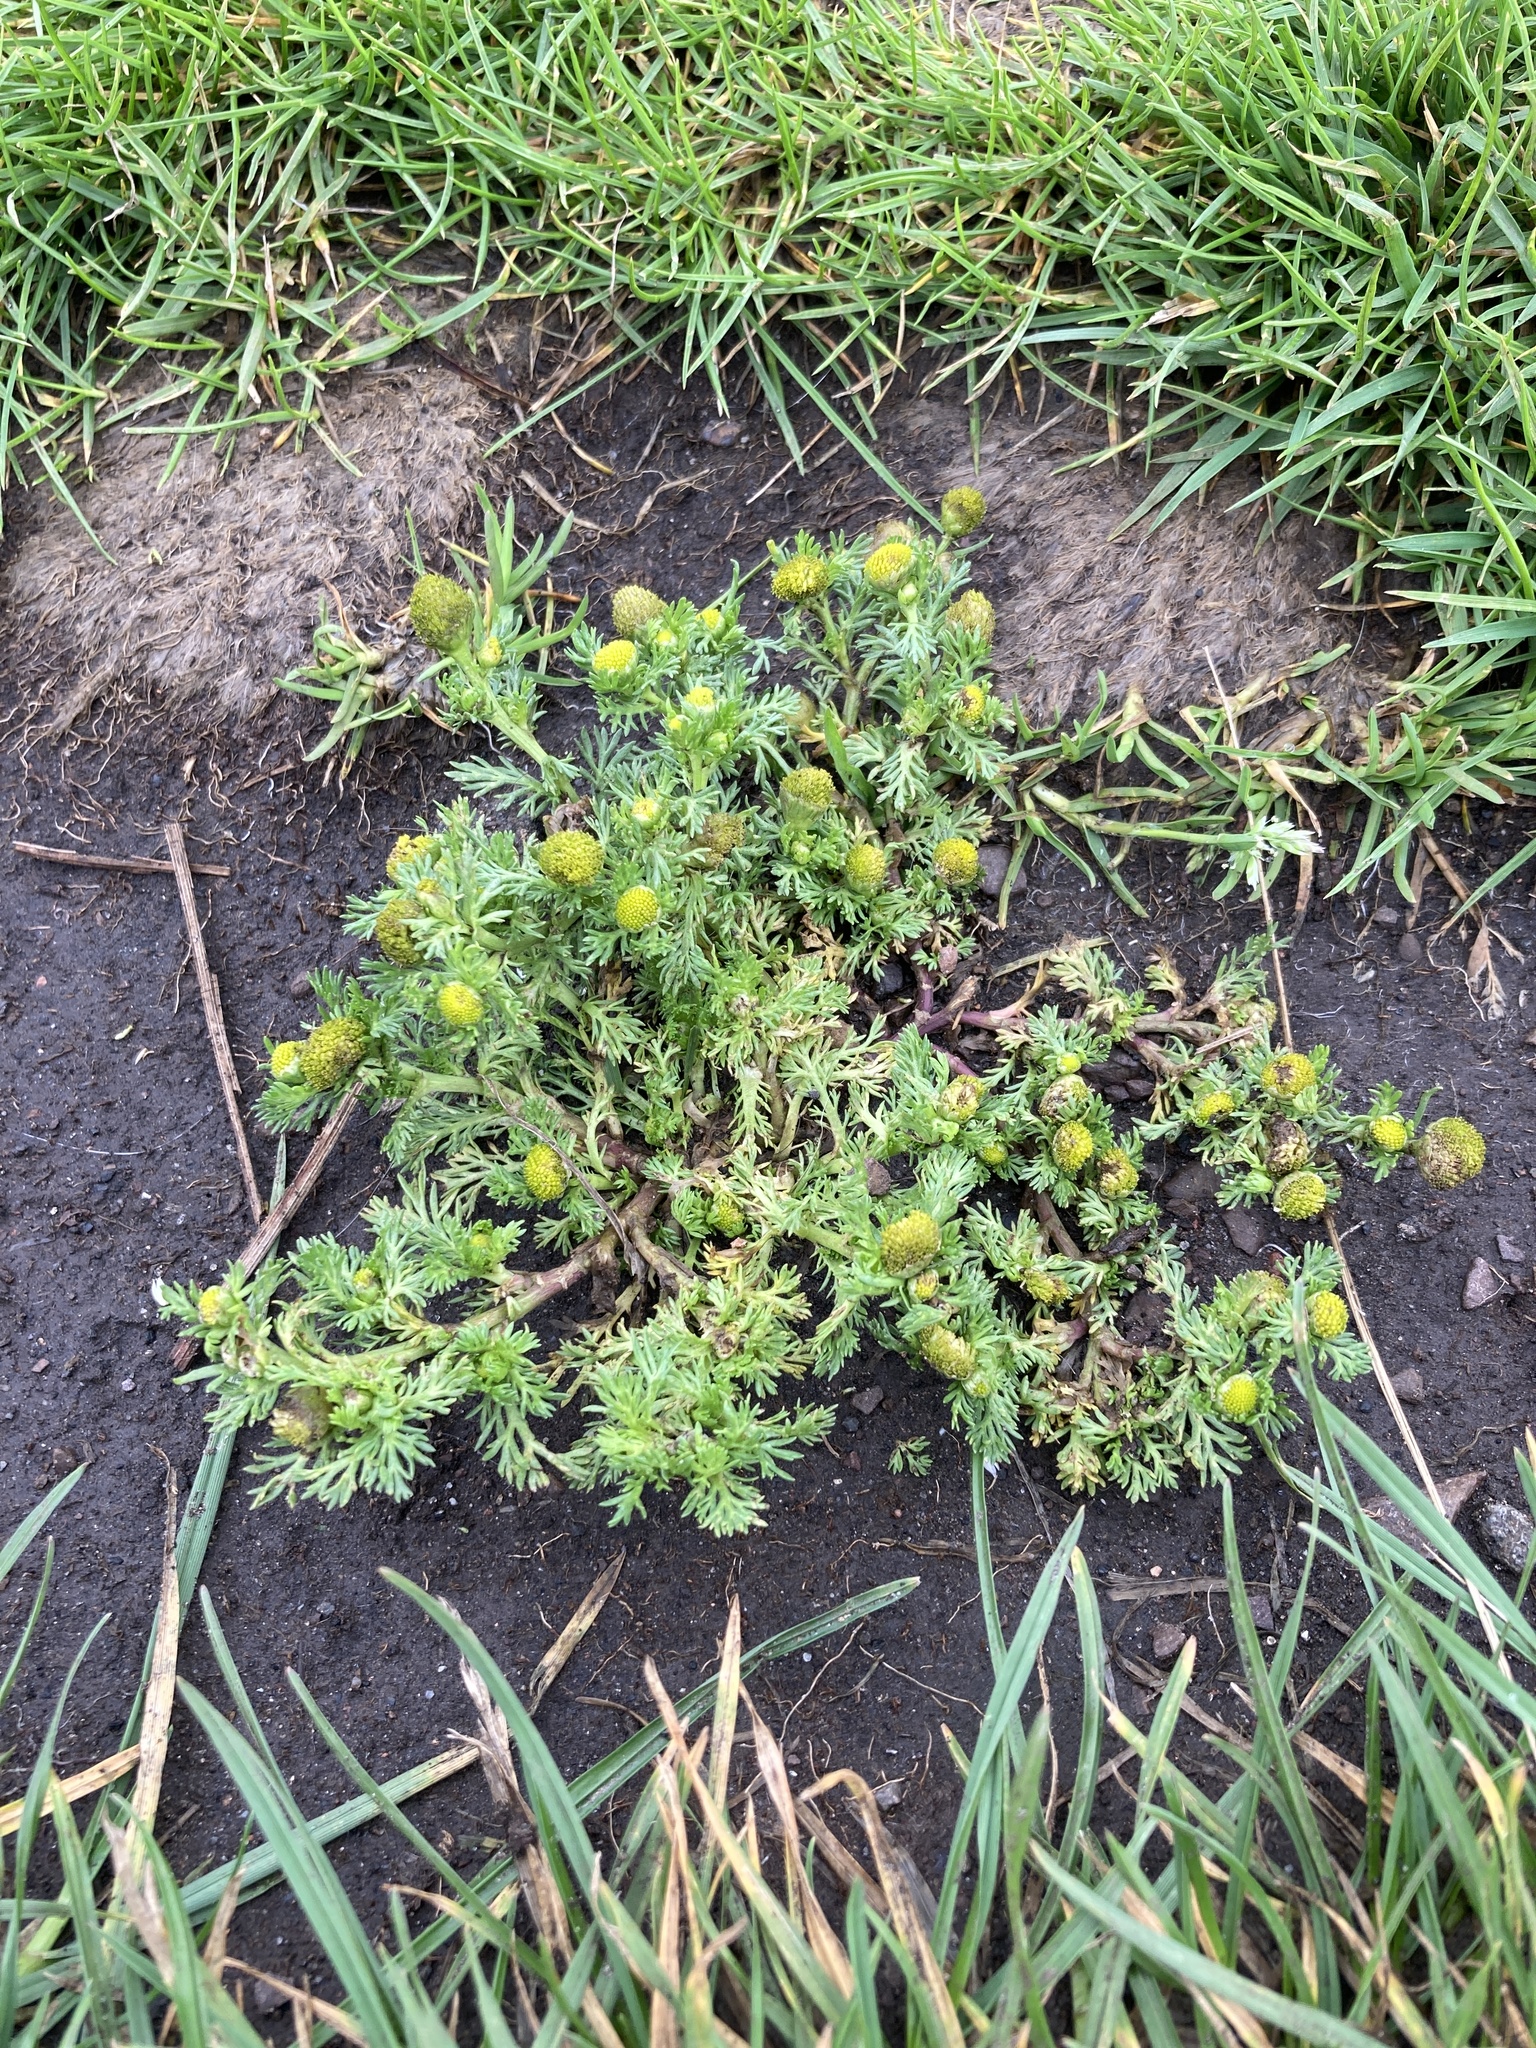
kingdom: Plantae
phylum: Tracheophyta
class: Magnoliopsida
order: Asterales
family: Asteraceae
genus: Matricaria
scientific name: Matricaria discoidea
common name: Disc mayweed
